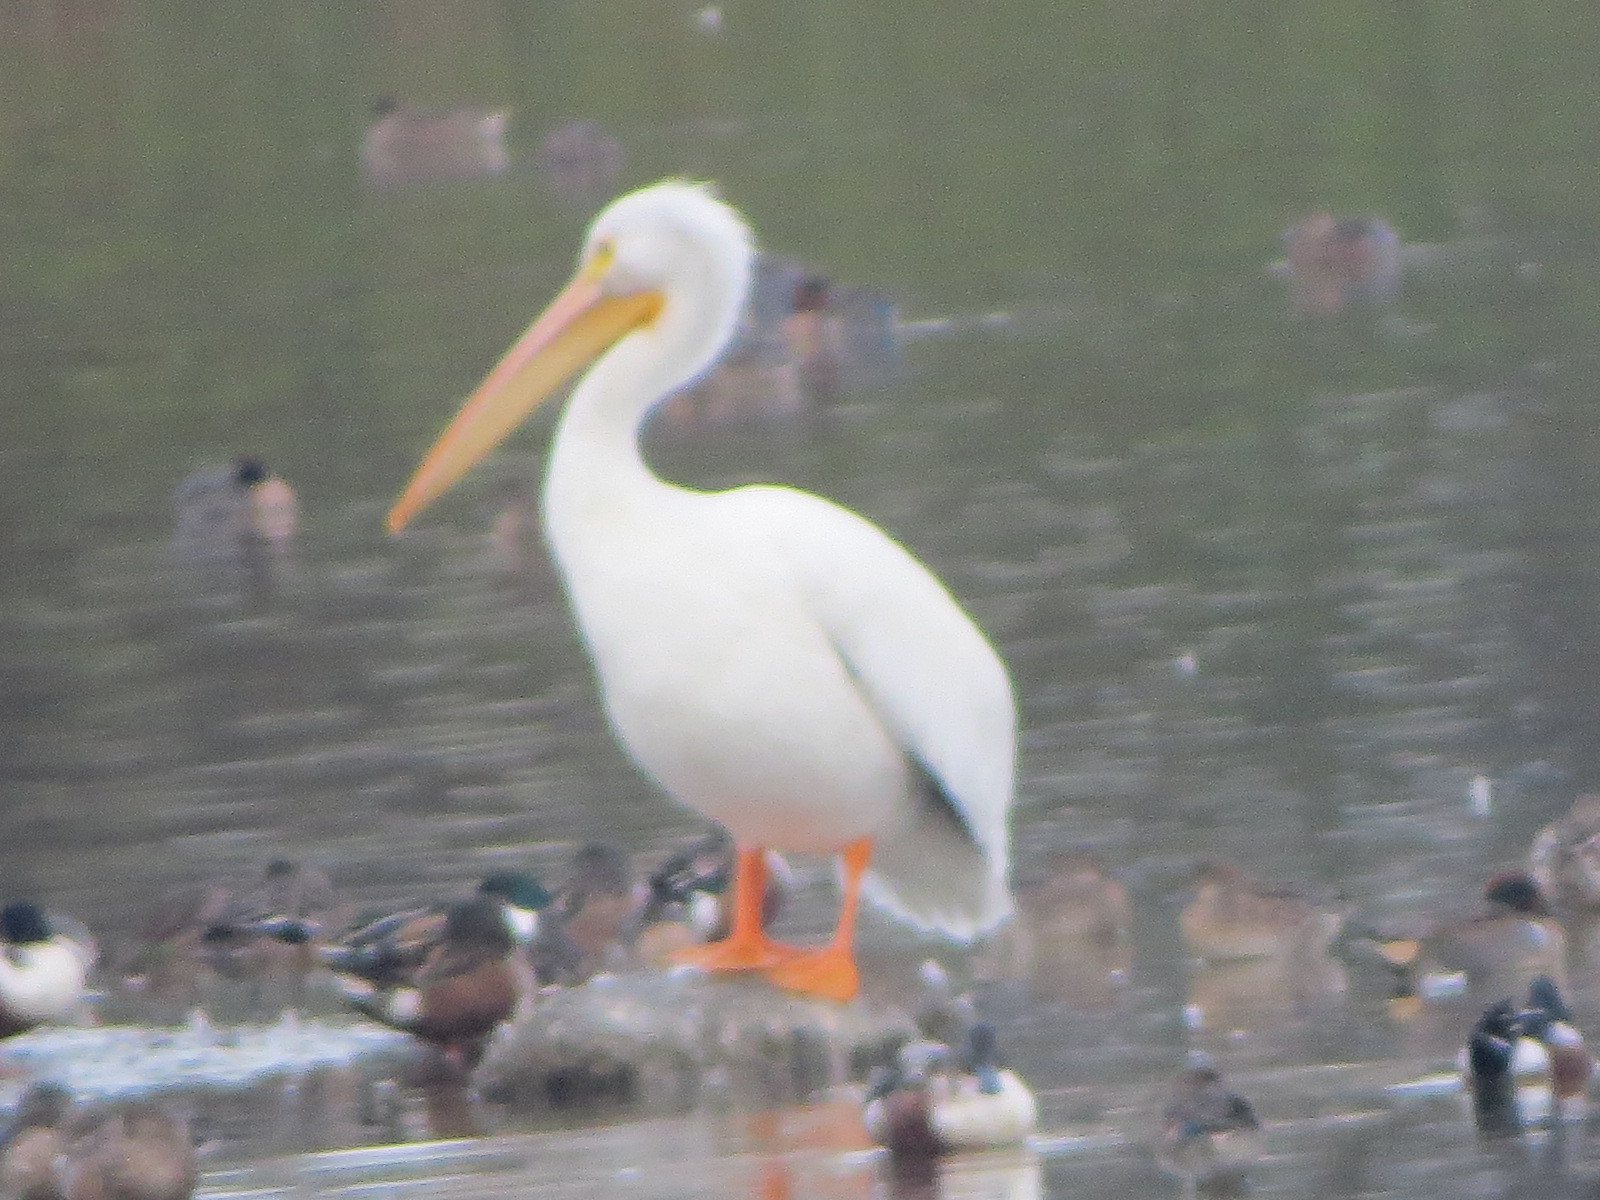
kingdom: Animalia
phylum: Chordata
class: Aves
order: Pelecaniformes
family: Pelecanidae
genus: Pelecanus
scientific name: Pelecanus erythrorhynchos
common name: American white pelican
